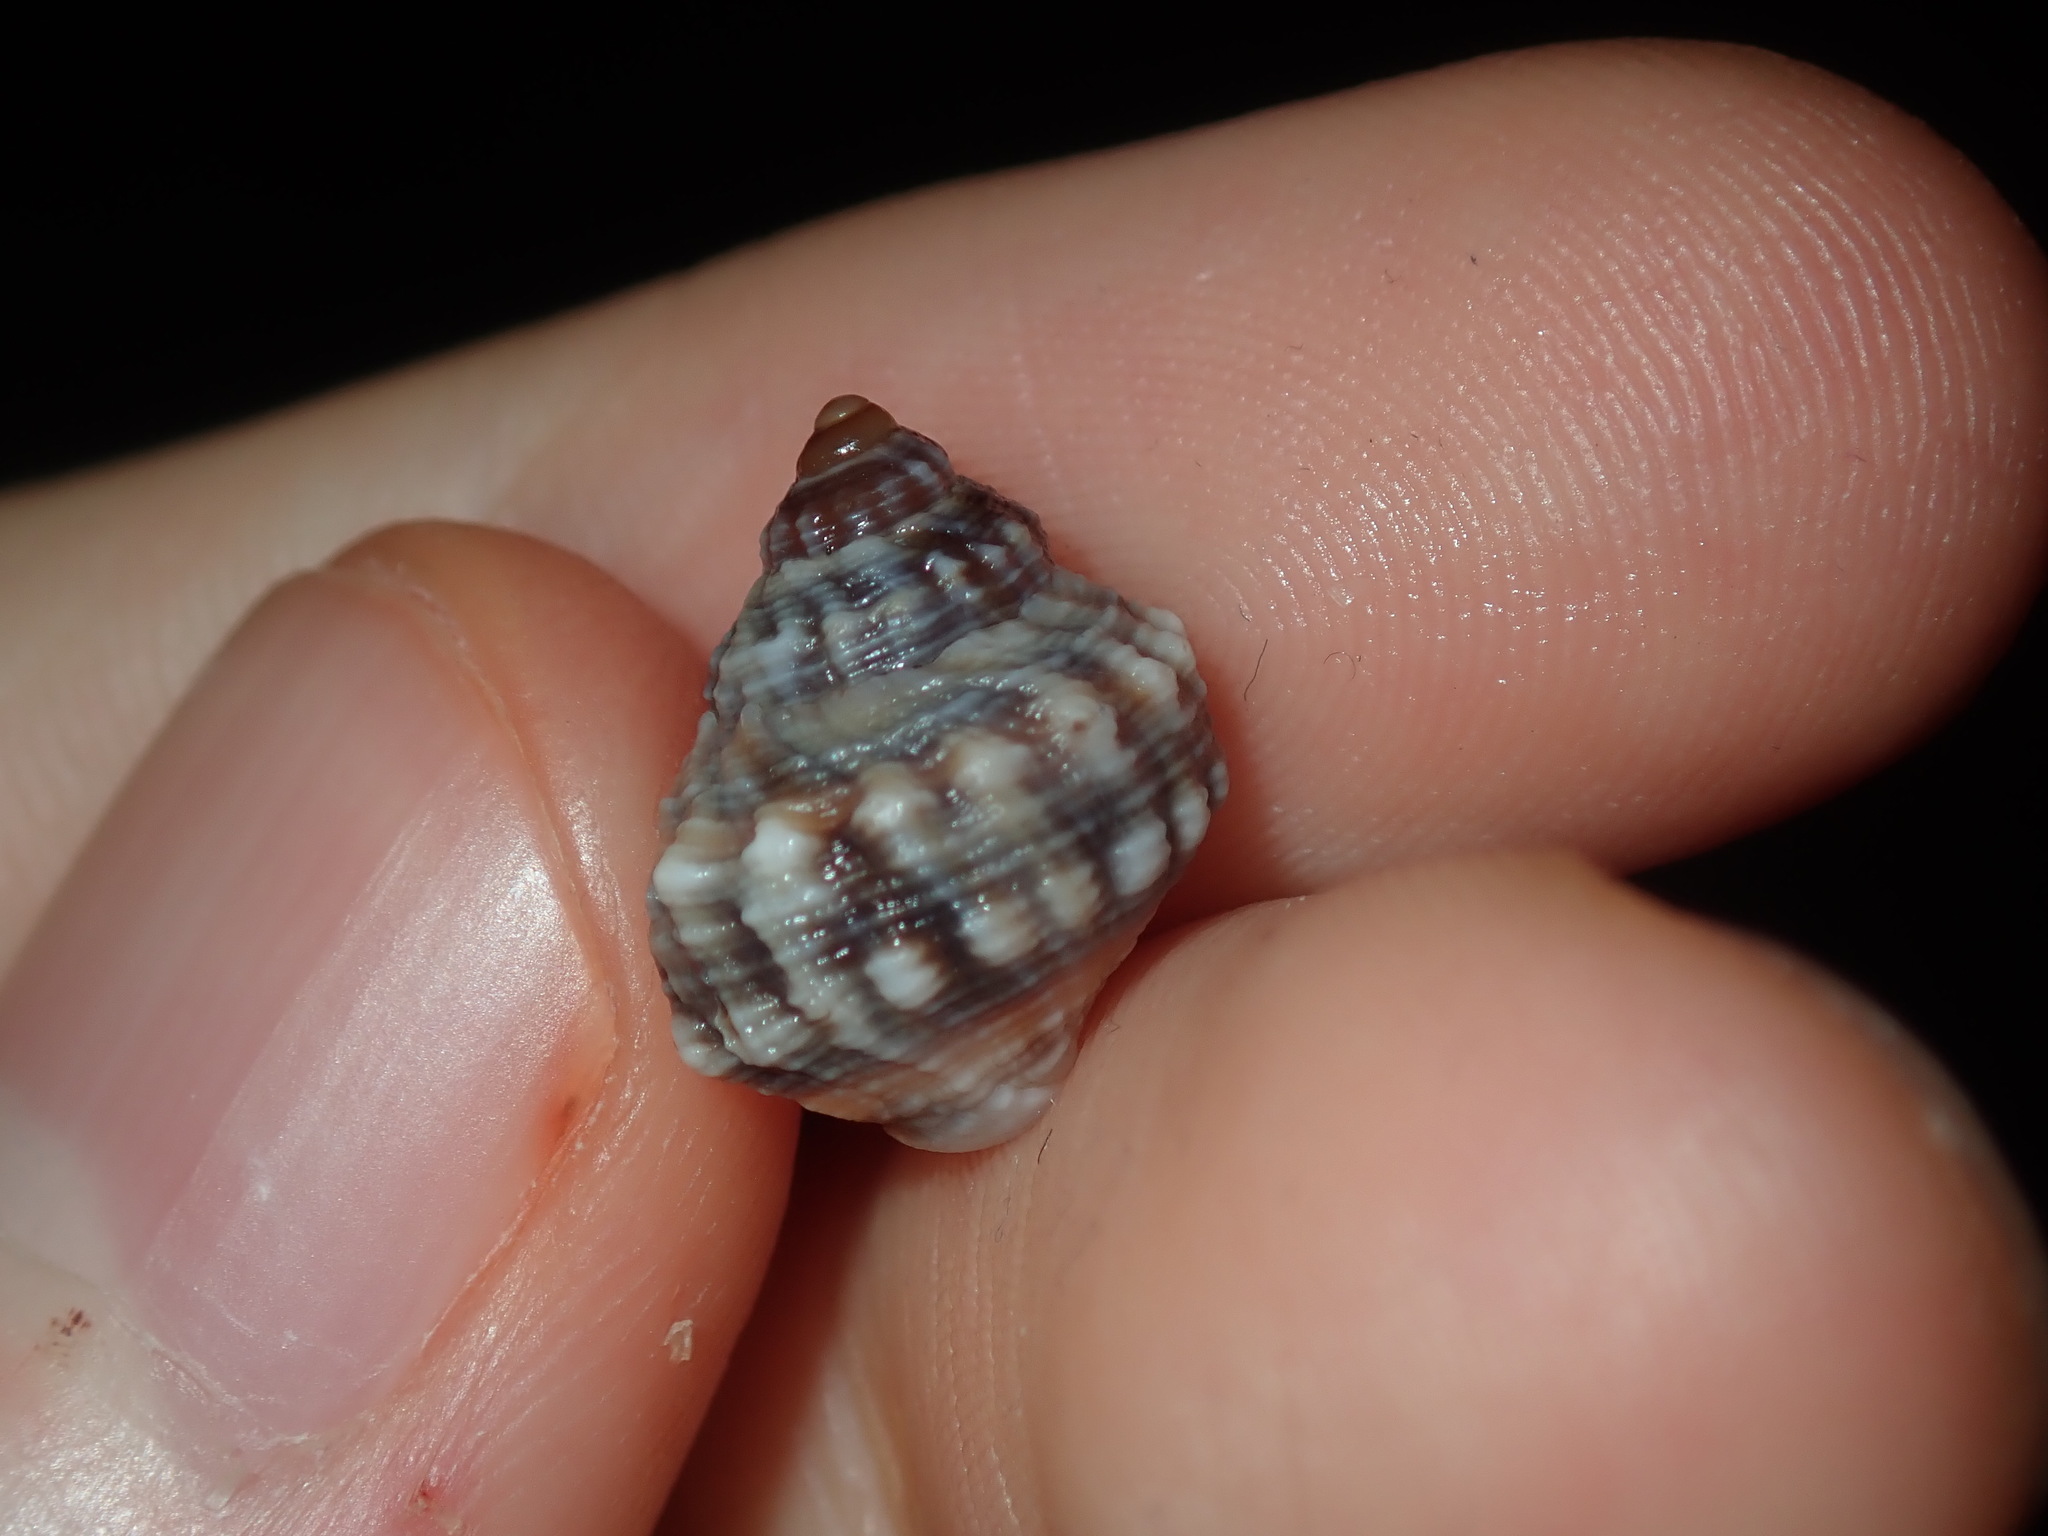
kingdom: Animalia
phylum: Mollusca
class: Gastropoda
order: Littorinimorpha
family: Littorinidae
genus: Nodilittorina
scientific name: Nodilittorina pyramidalis
